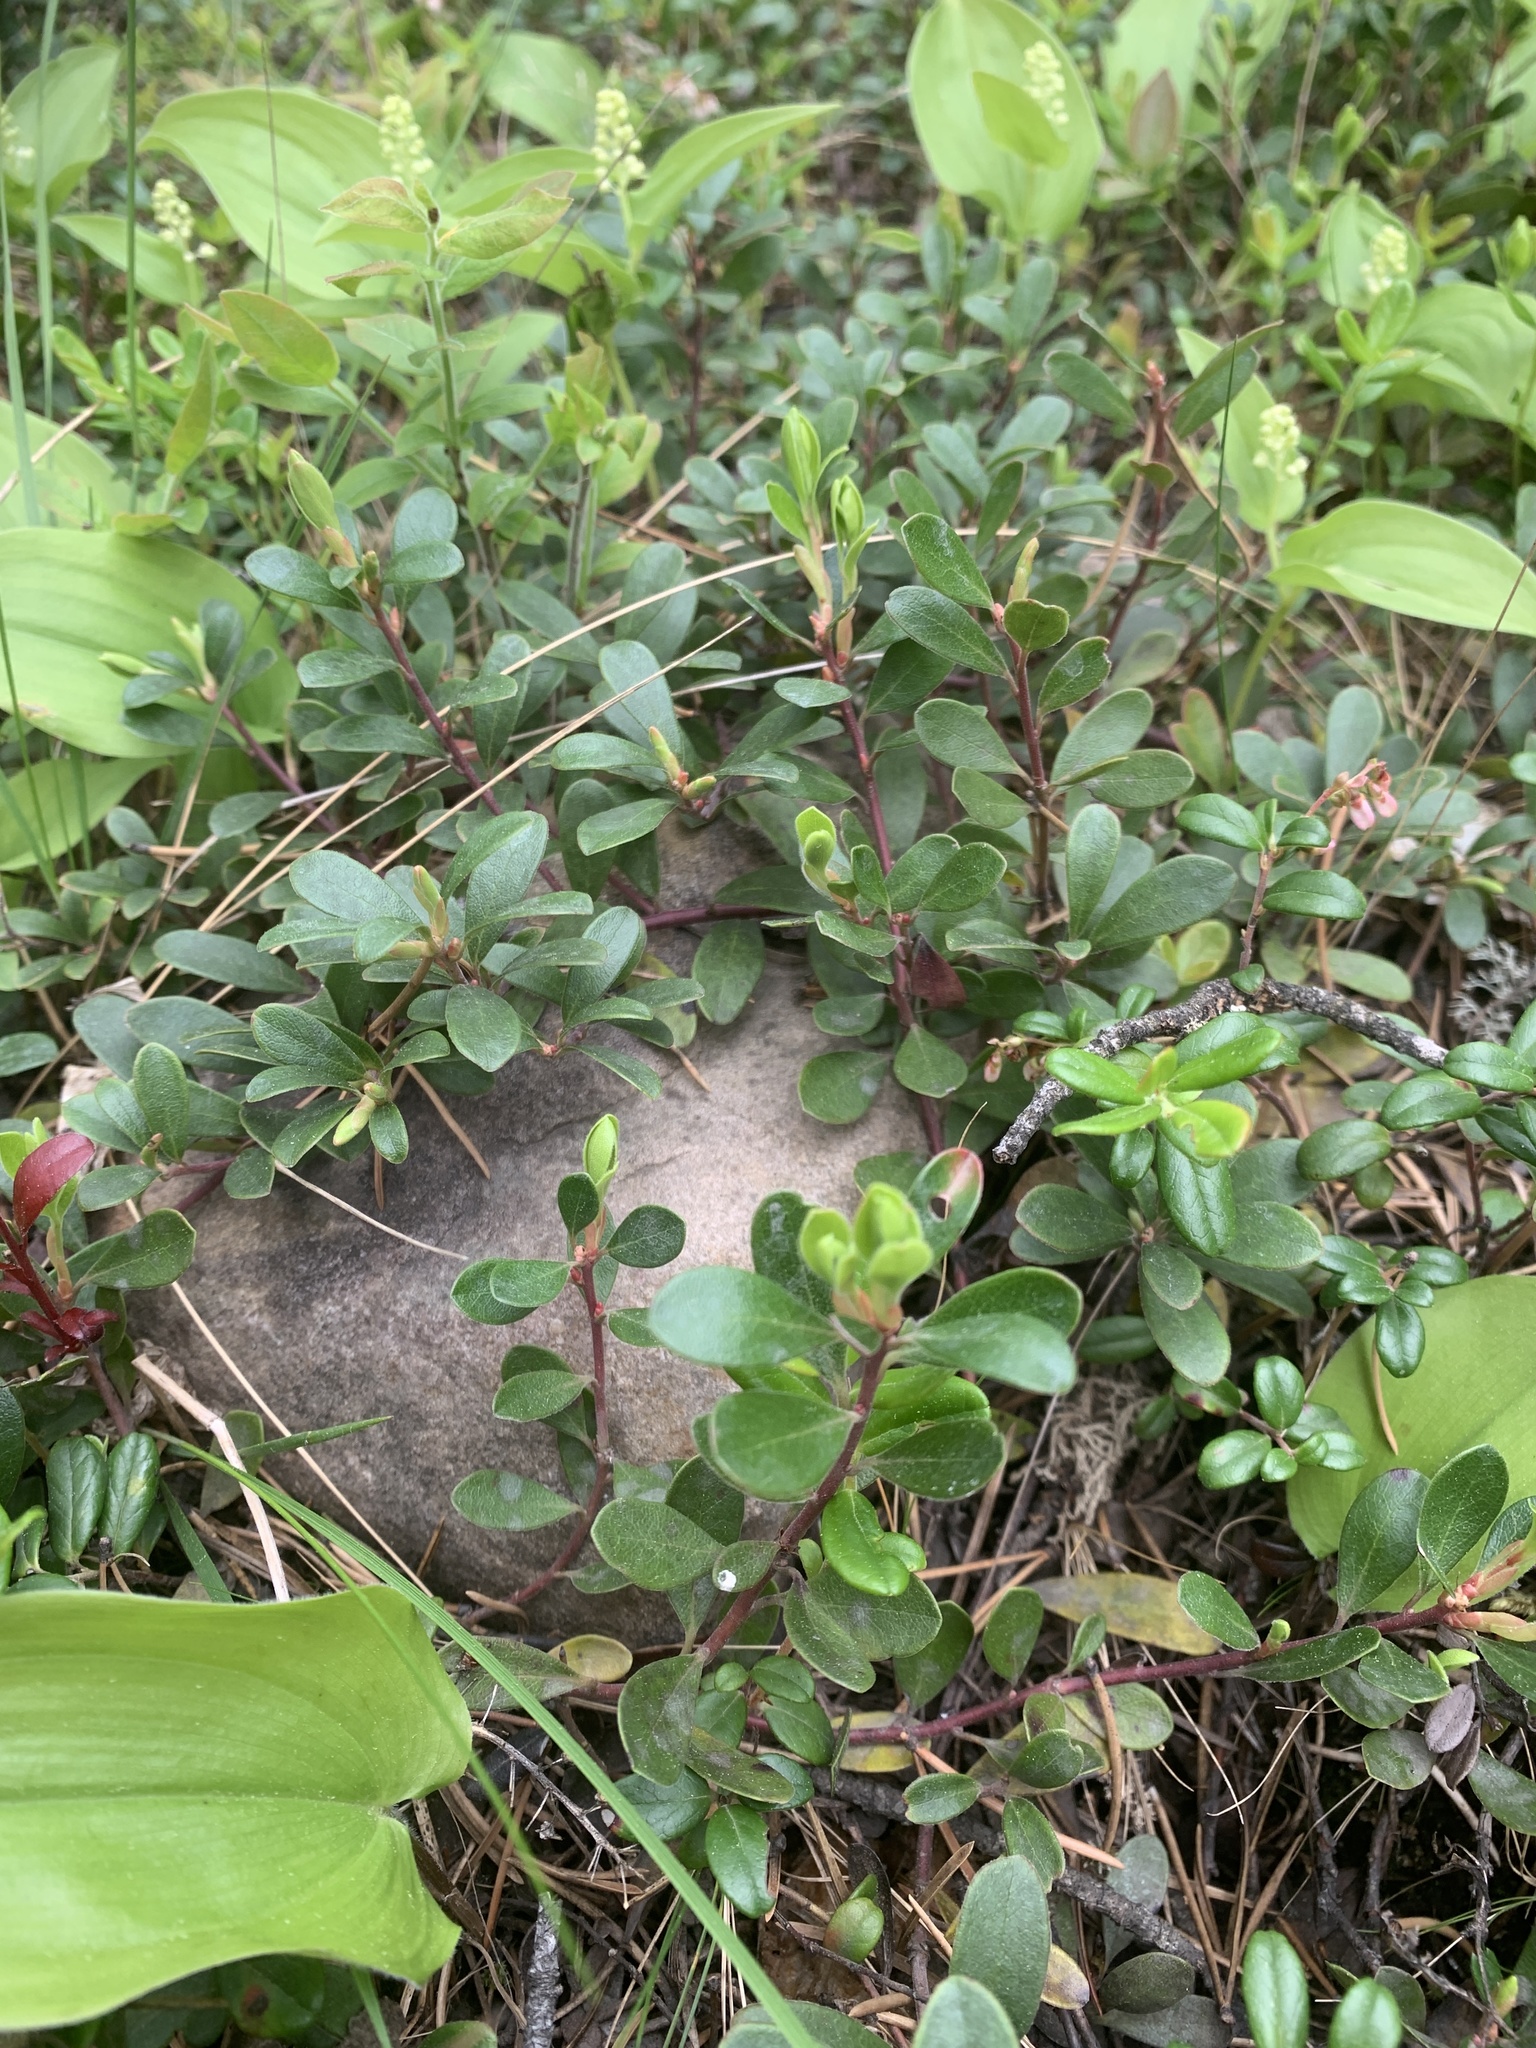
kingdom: Plantae
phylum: Tracheophyta
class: Magnoliopsida
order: Ericales
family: Ericaceae
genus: Arctostaphylos
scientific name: Arctostaphylos uva-ursi
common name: Bearberry
